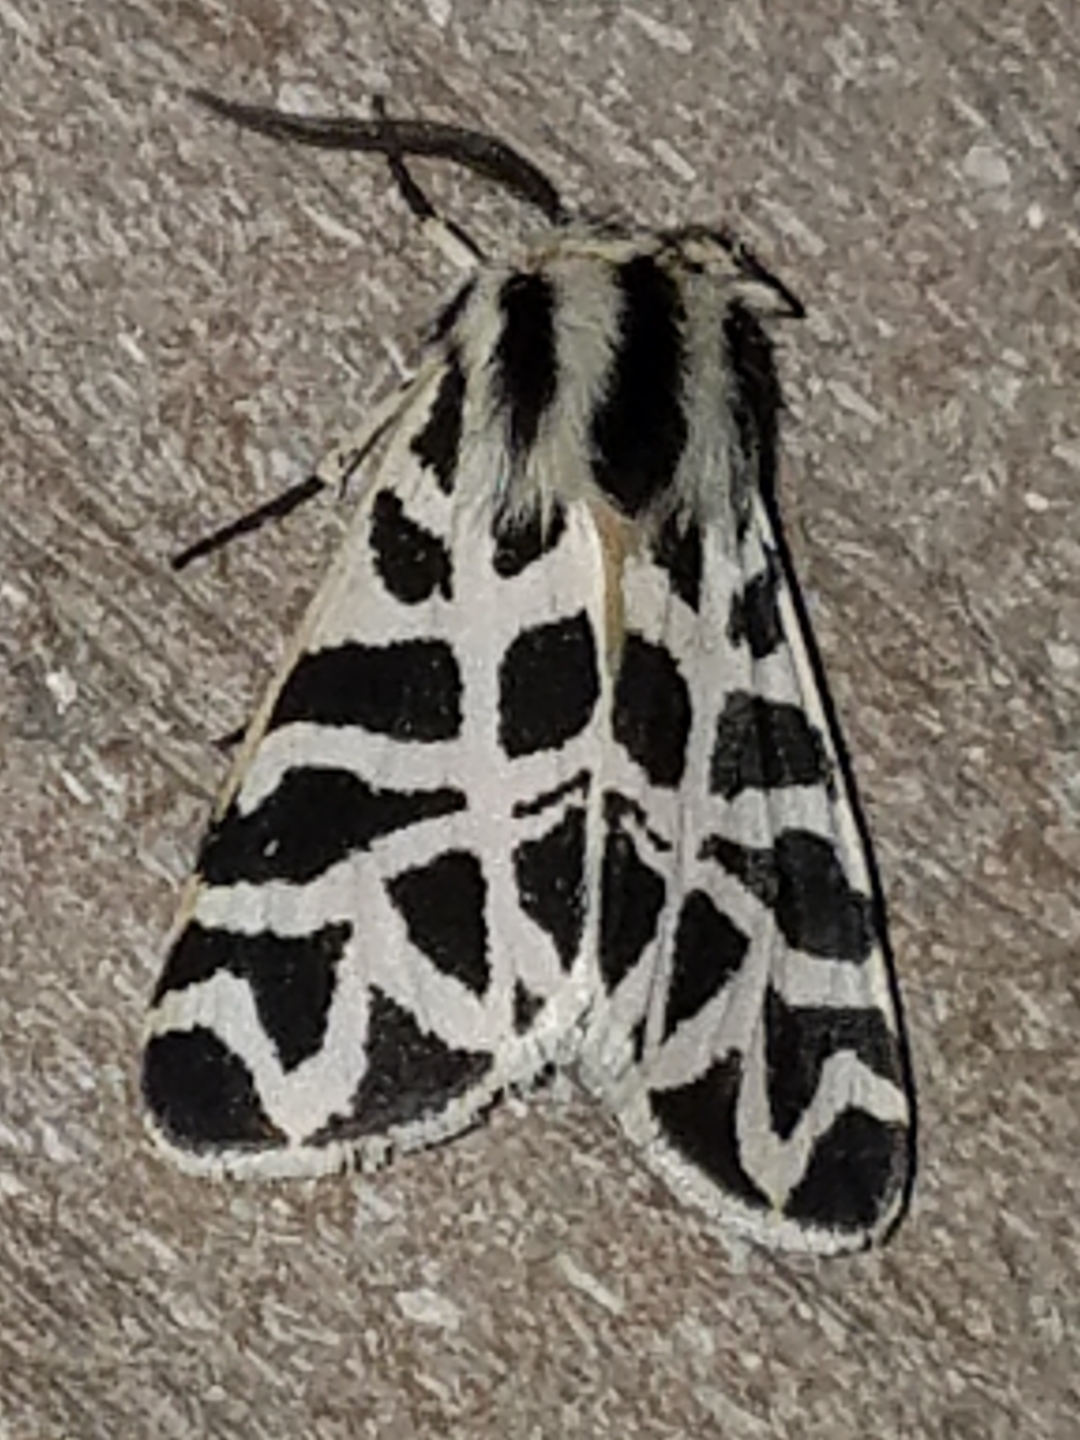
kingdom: Animalia
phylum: Arthropoda
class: Insecta
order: Lepidoptera
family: Erebidae
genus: Apantesis
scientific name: Apantesis
